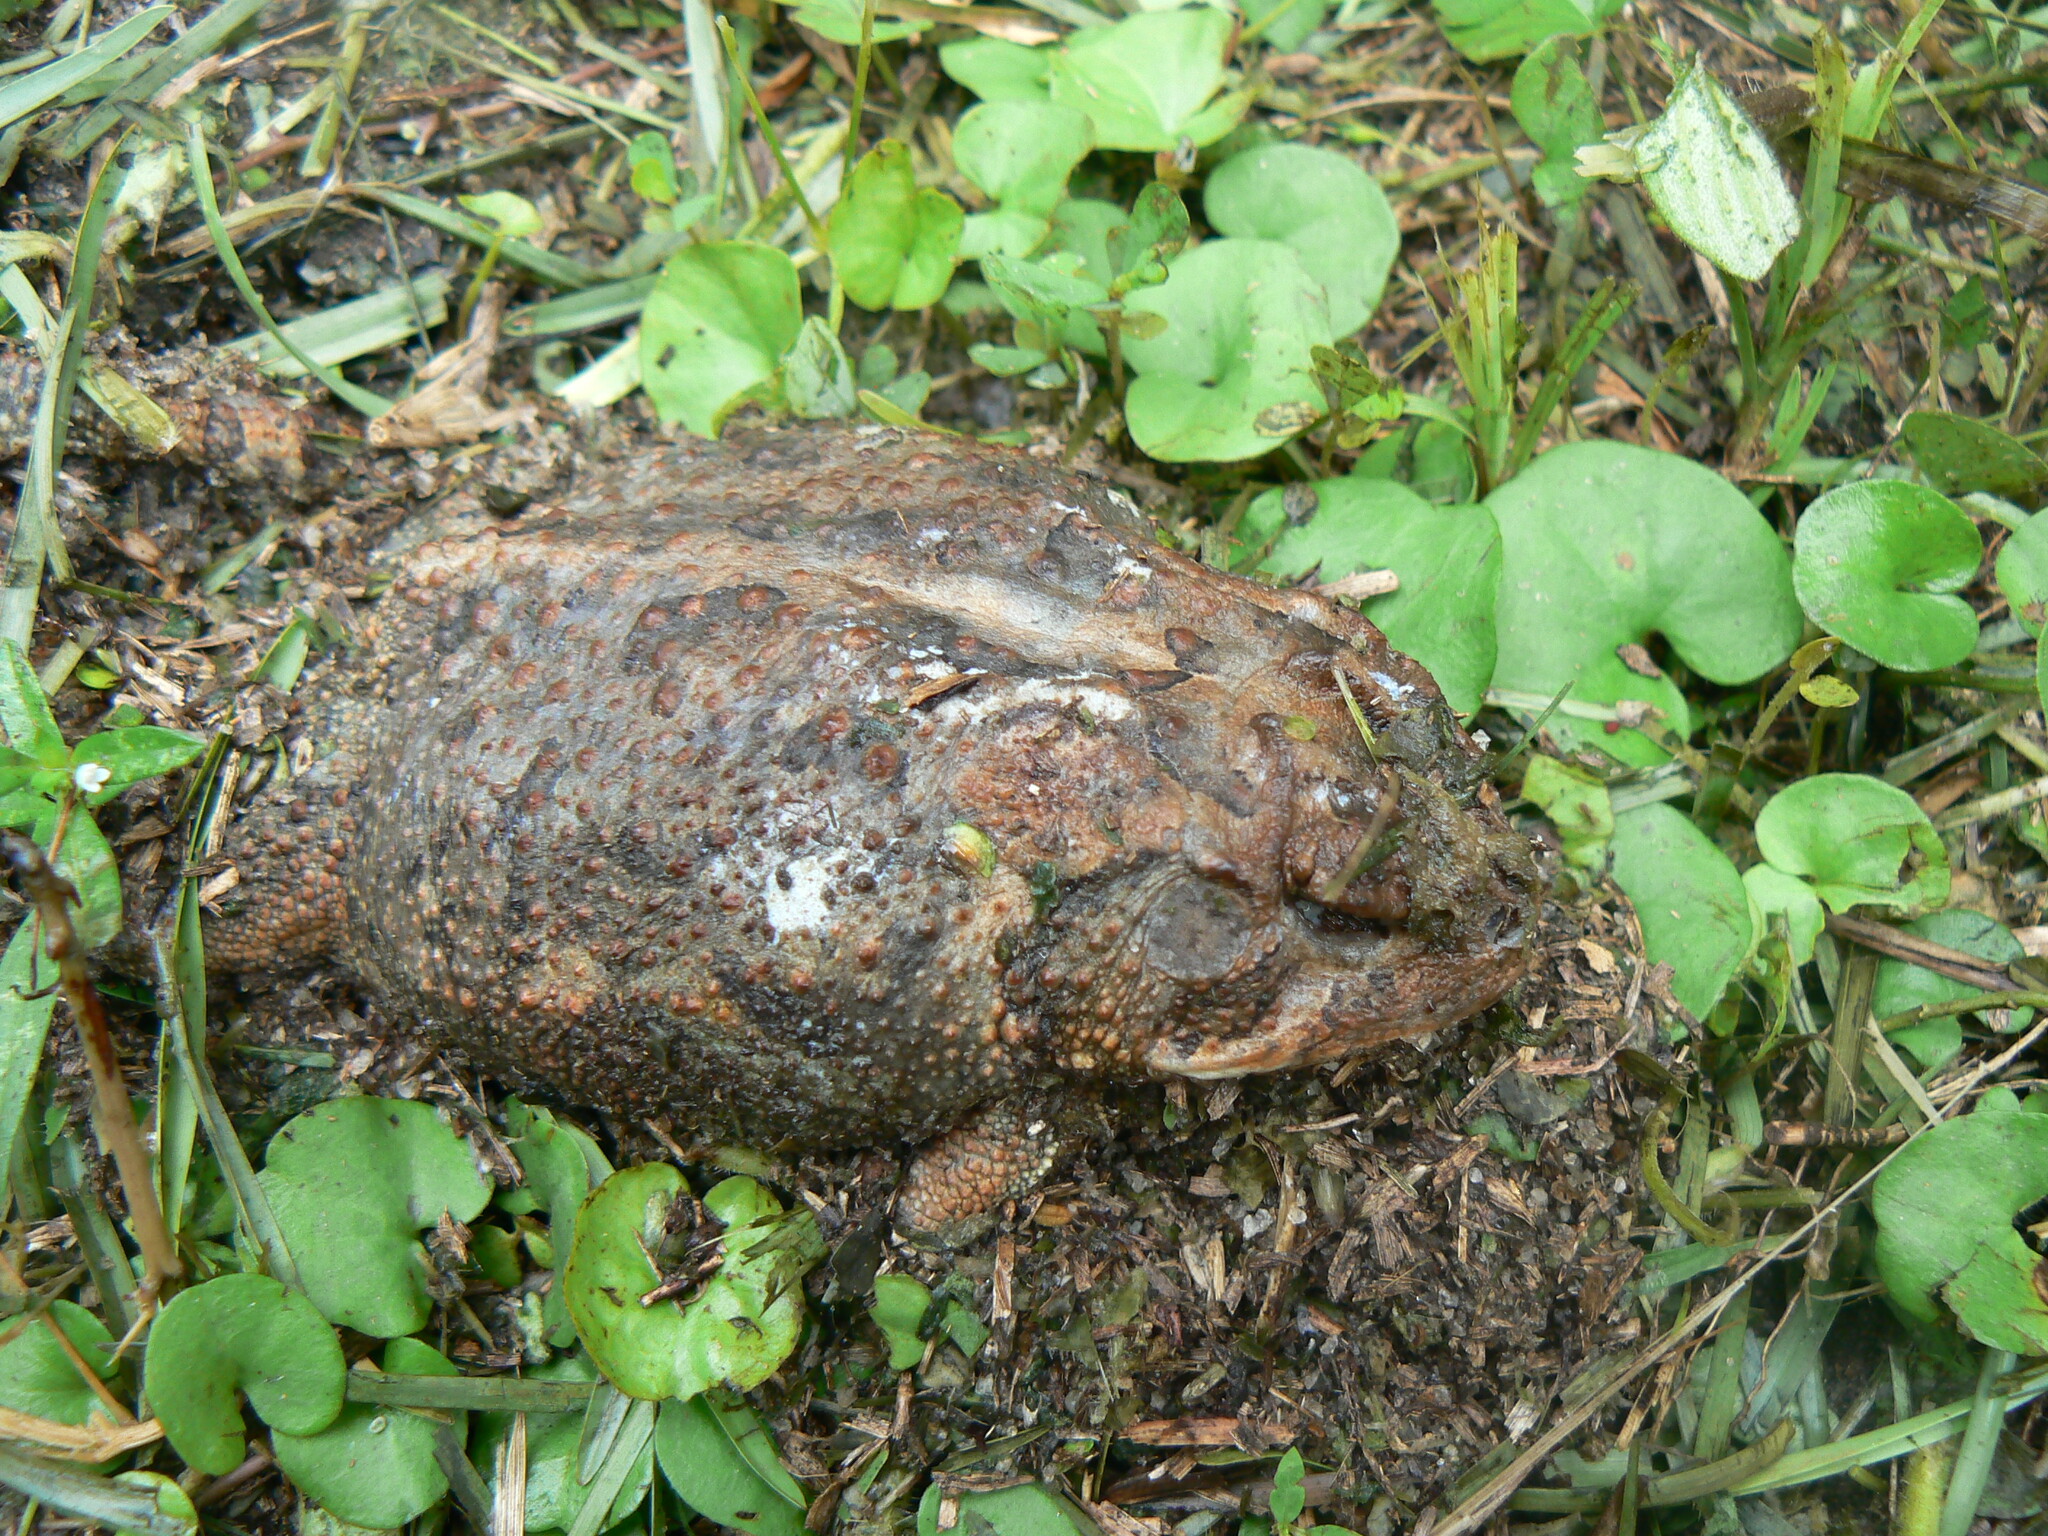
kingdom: Animalia
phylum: Chordata
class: Amphibia
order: Anura
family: Bufonidae
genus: Anaxyrus
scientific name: Anaxyrus terrestris
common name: Southern toad
